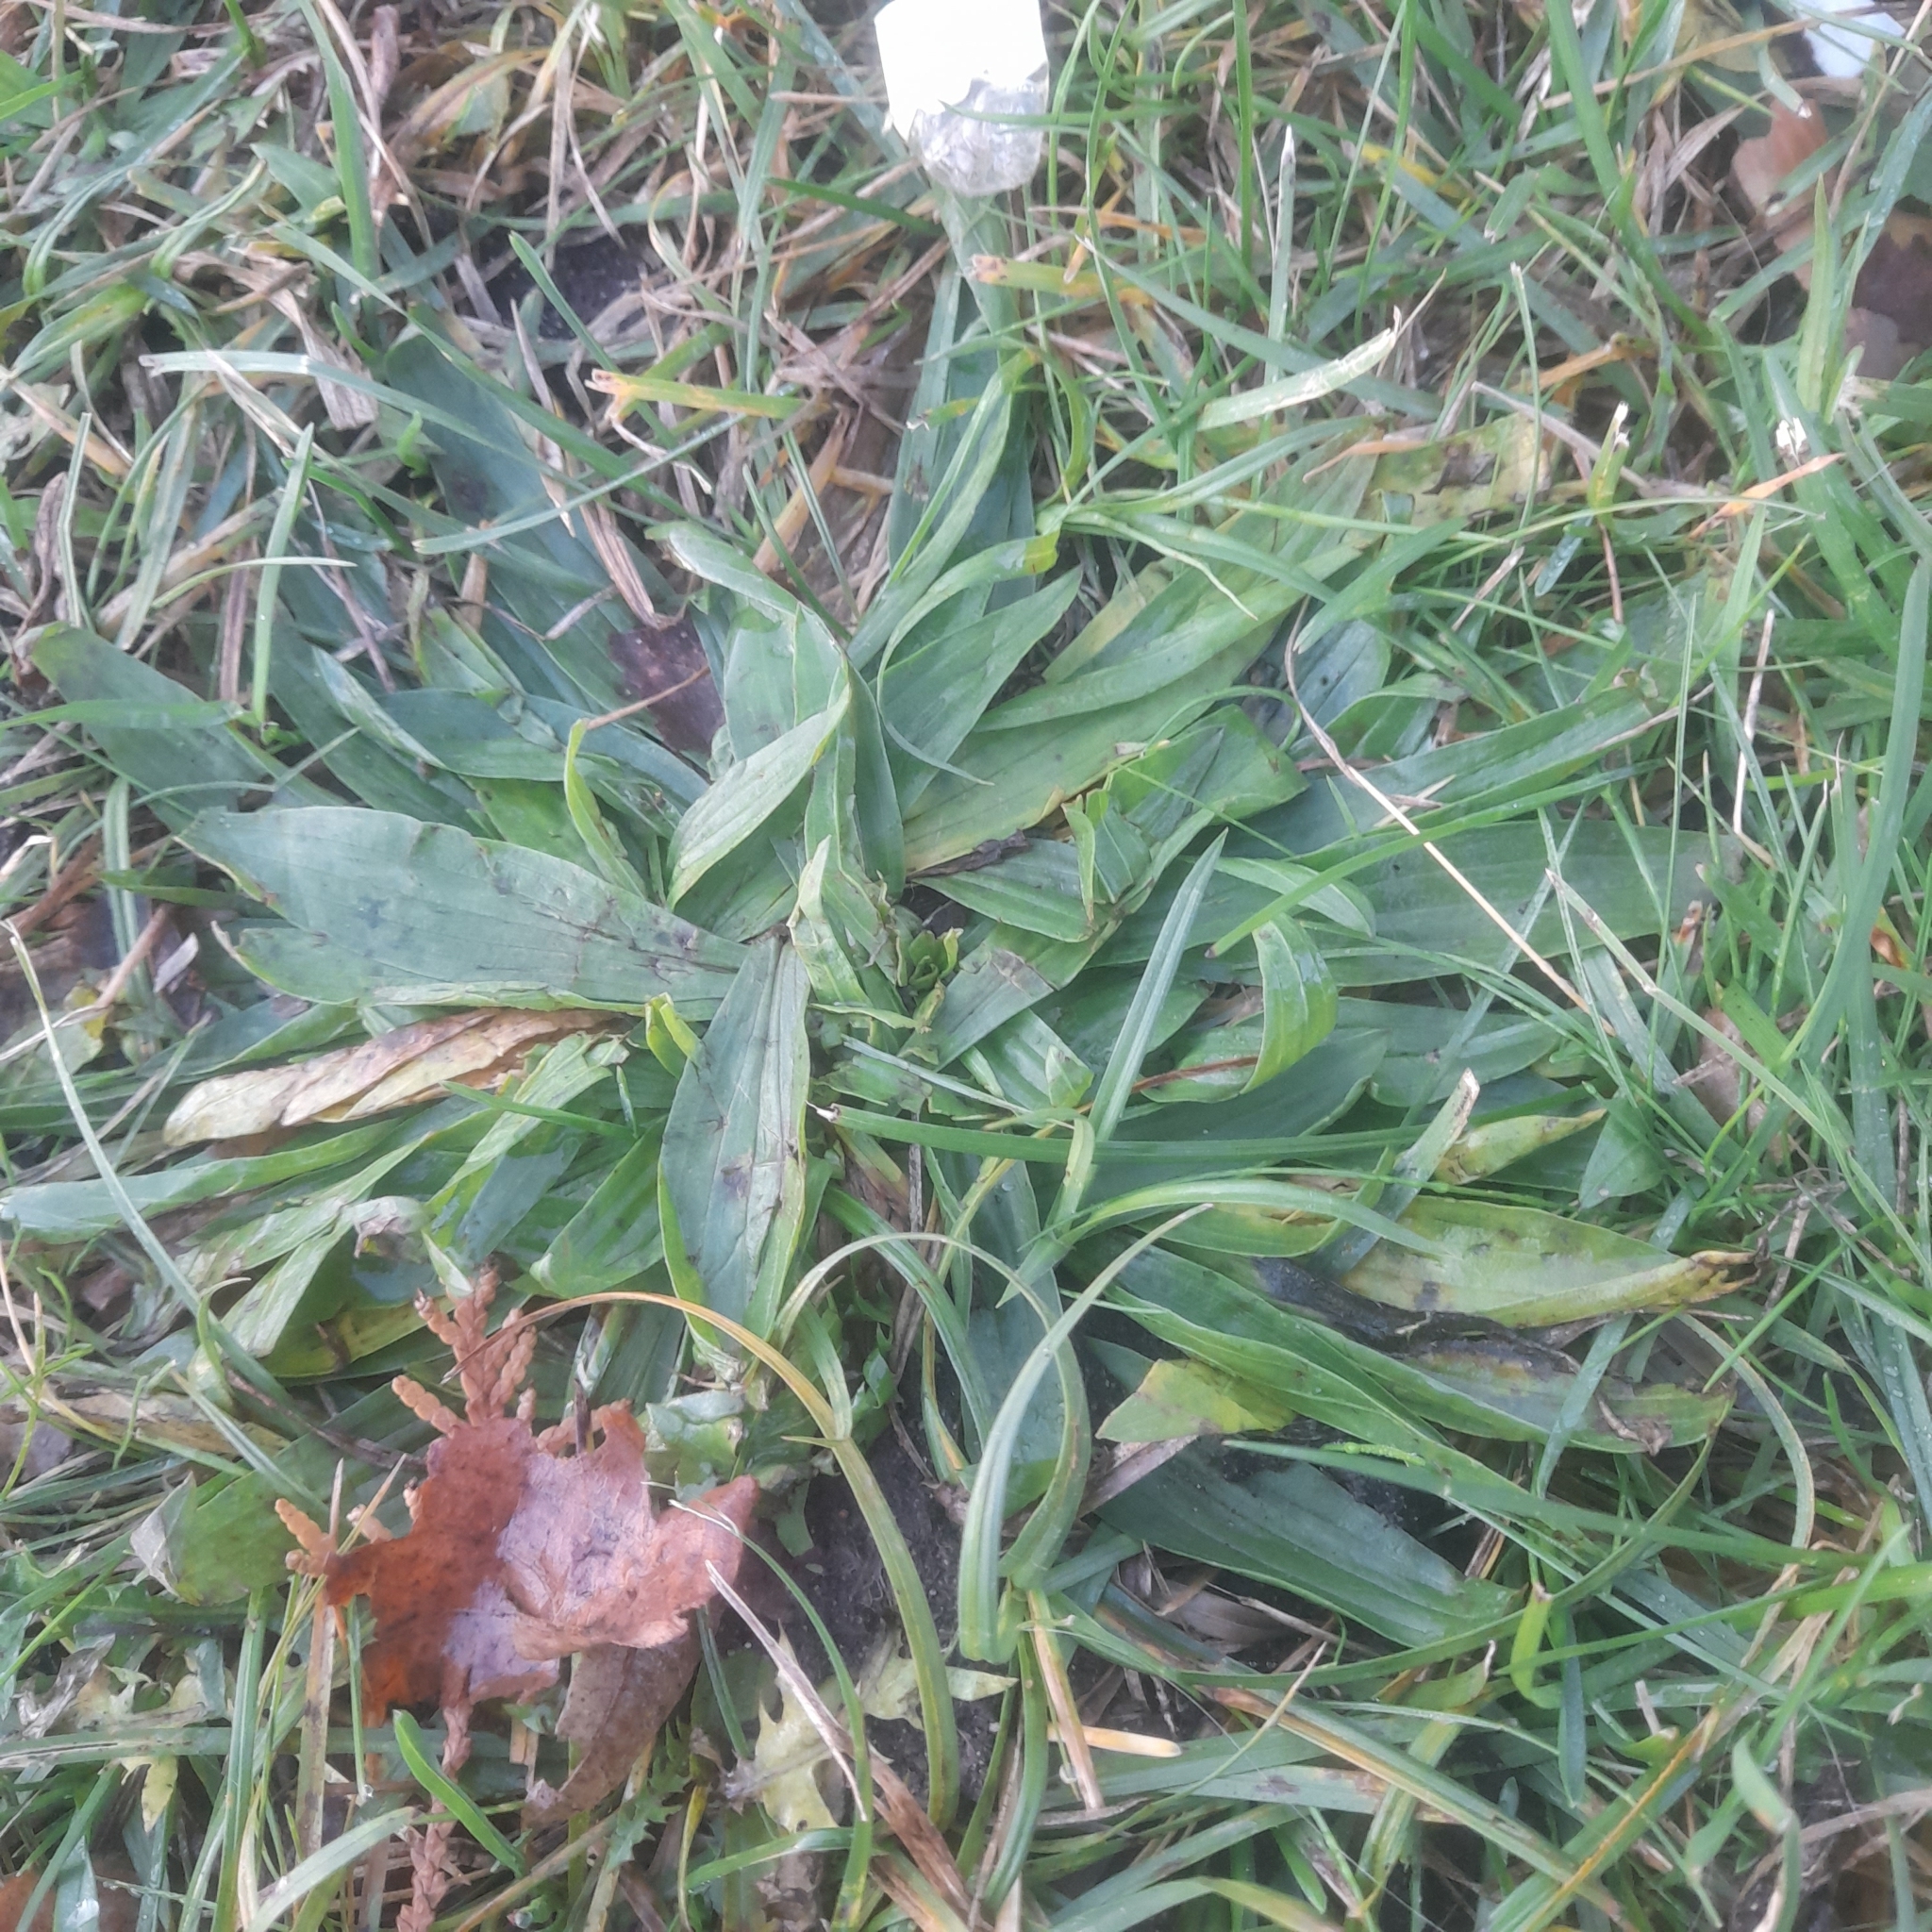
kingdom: Plantae
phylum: Tracheophyta
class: Magnoliopsida
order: Lamiales
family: Plantaginaceae
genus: Plantago
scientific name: Plantago lanceolata
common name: Ribwort plantain
